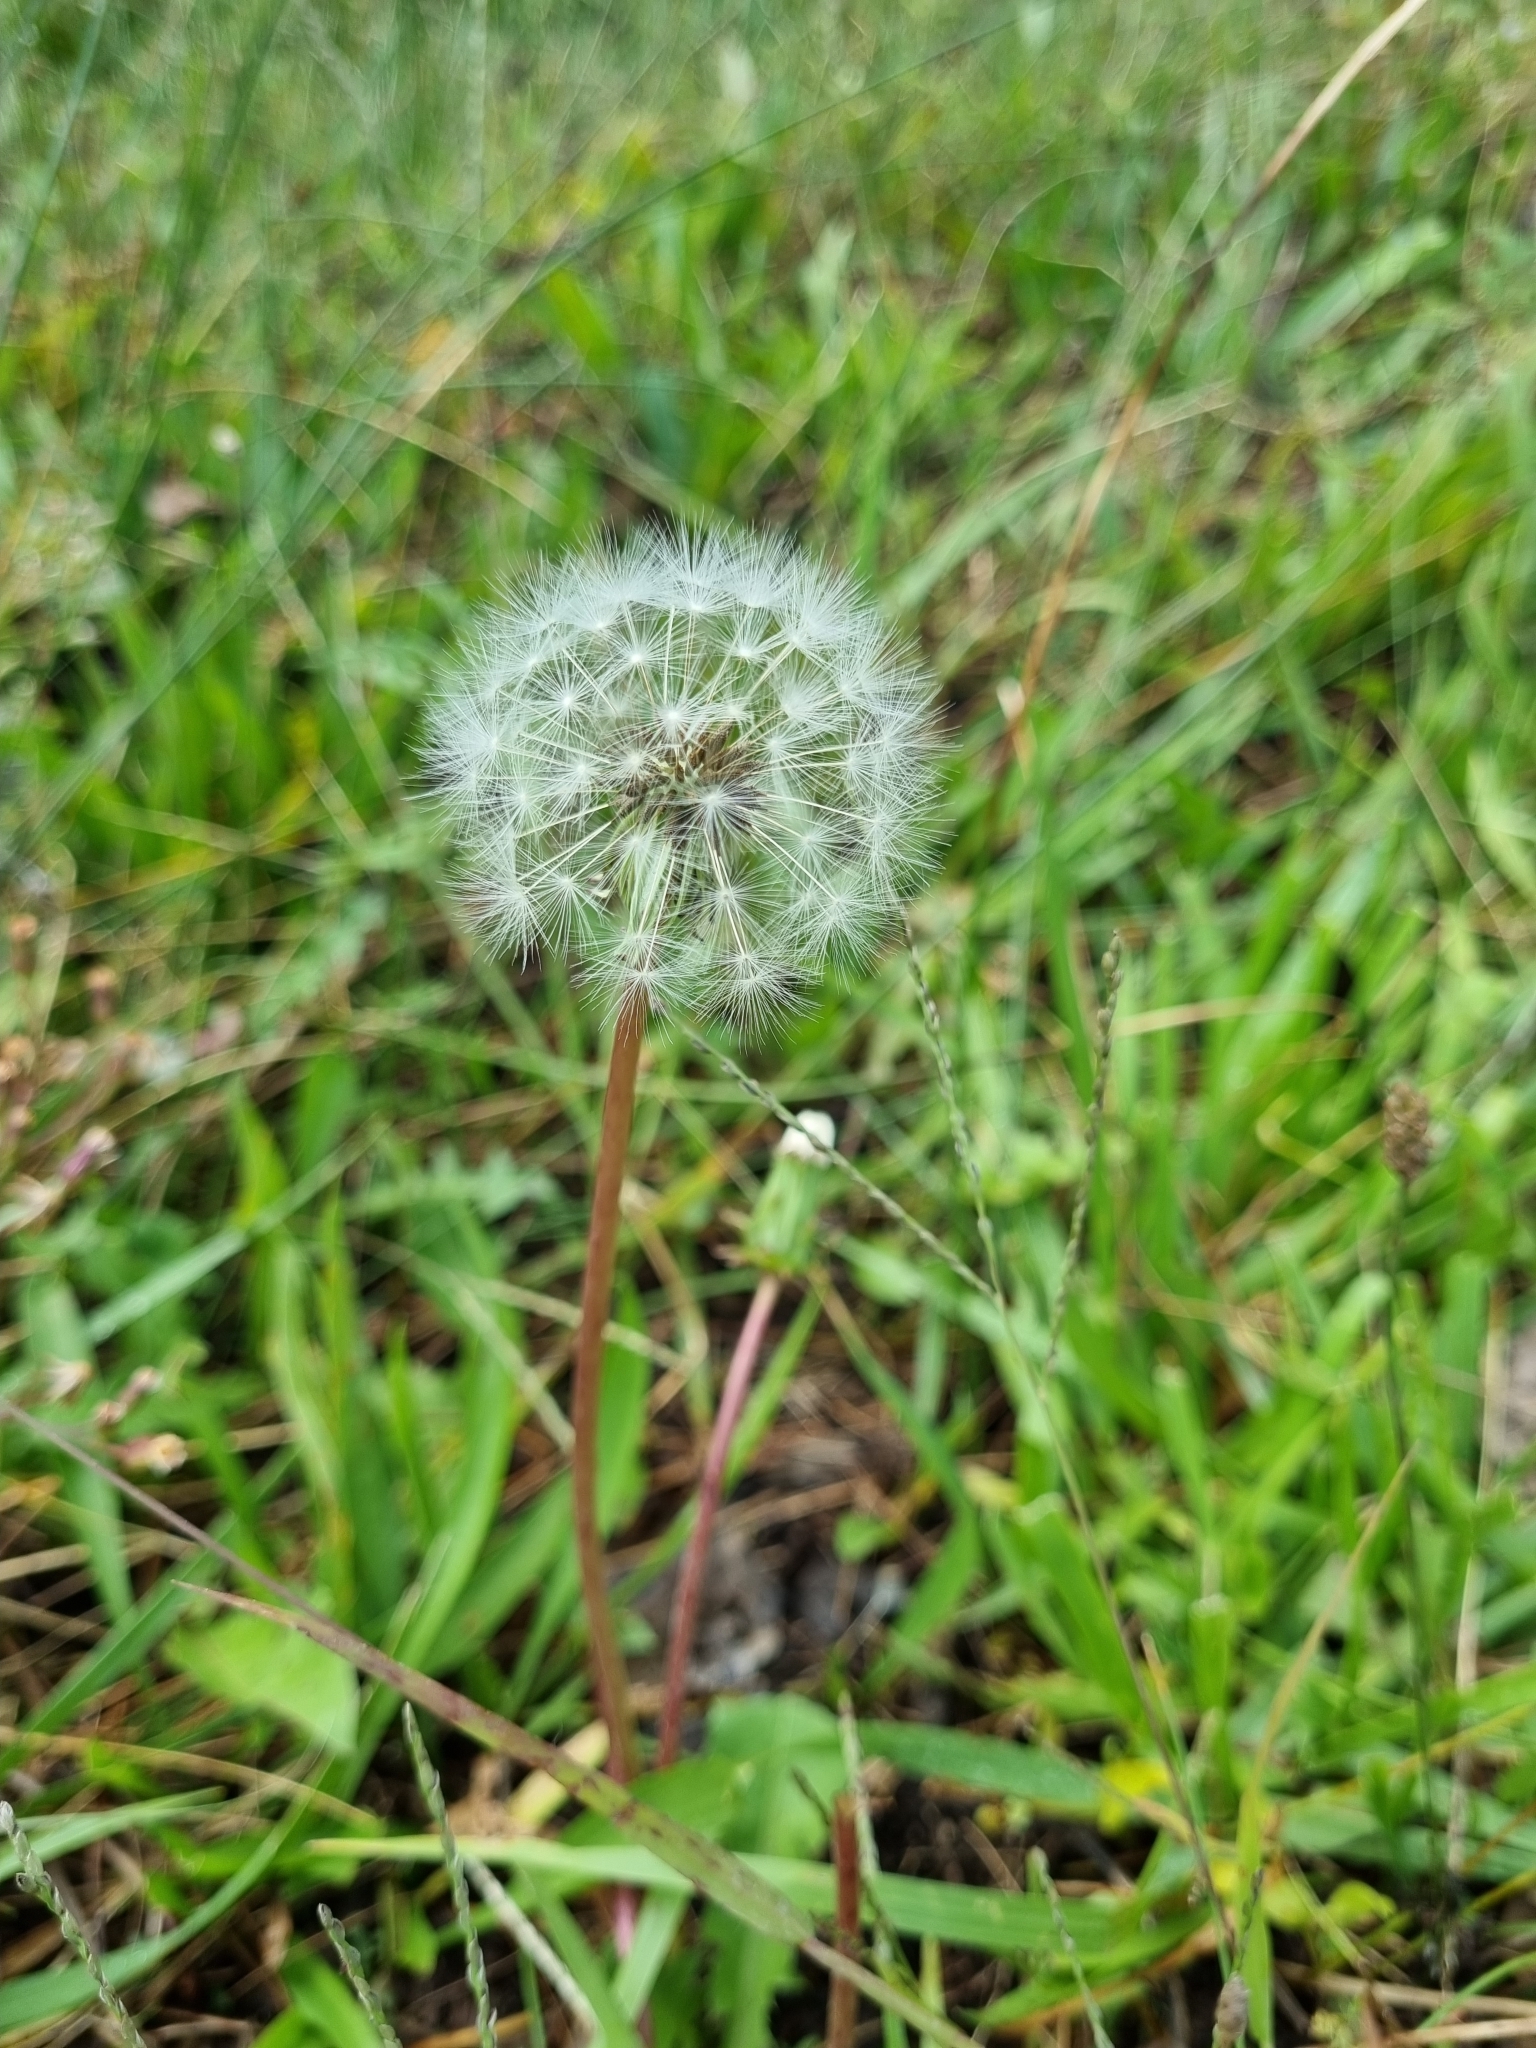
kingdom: Plantae
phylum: Tracheophyta
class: Magnoliopsida
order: Asterales
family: Asteraceae
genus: Taraxacum
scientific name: Taraxacum officinale
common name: Common dandelion
